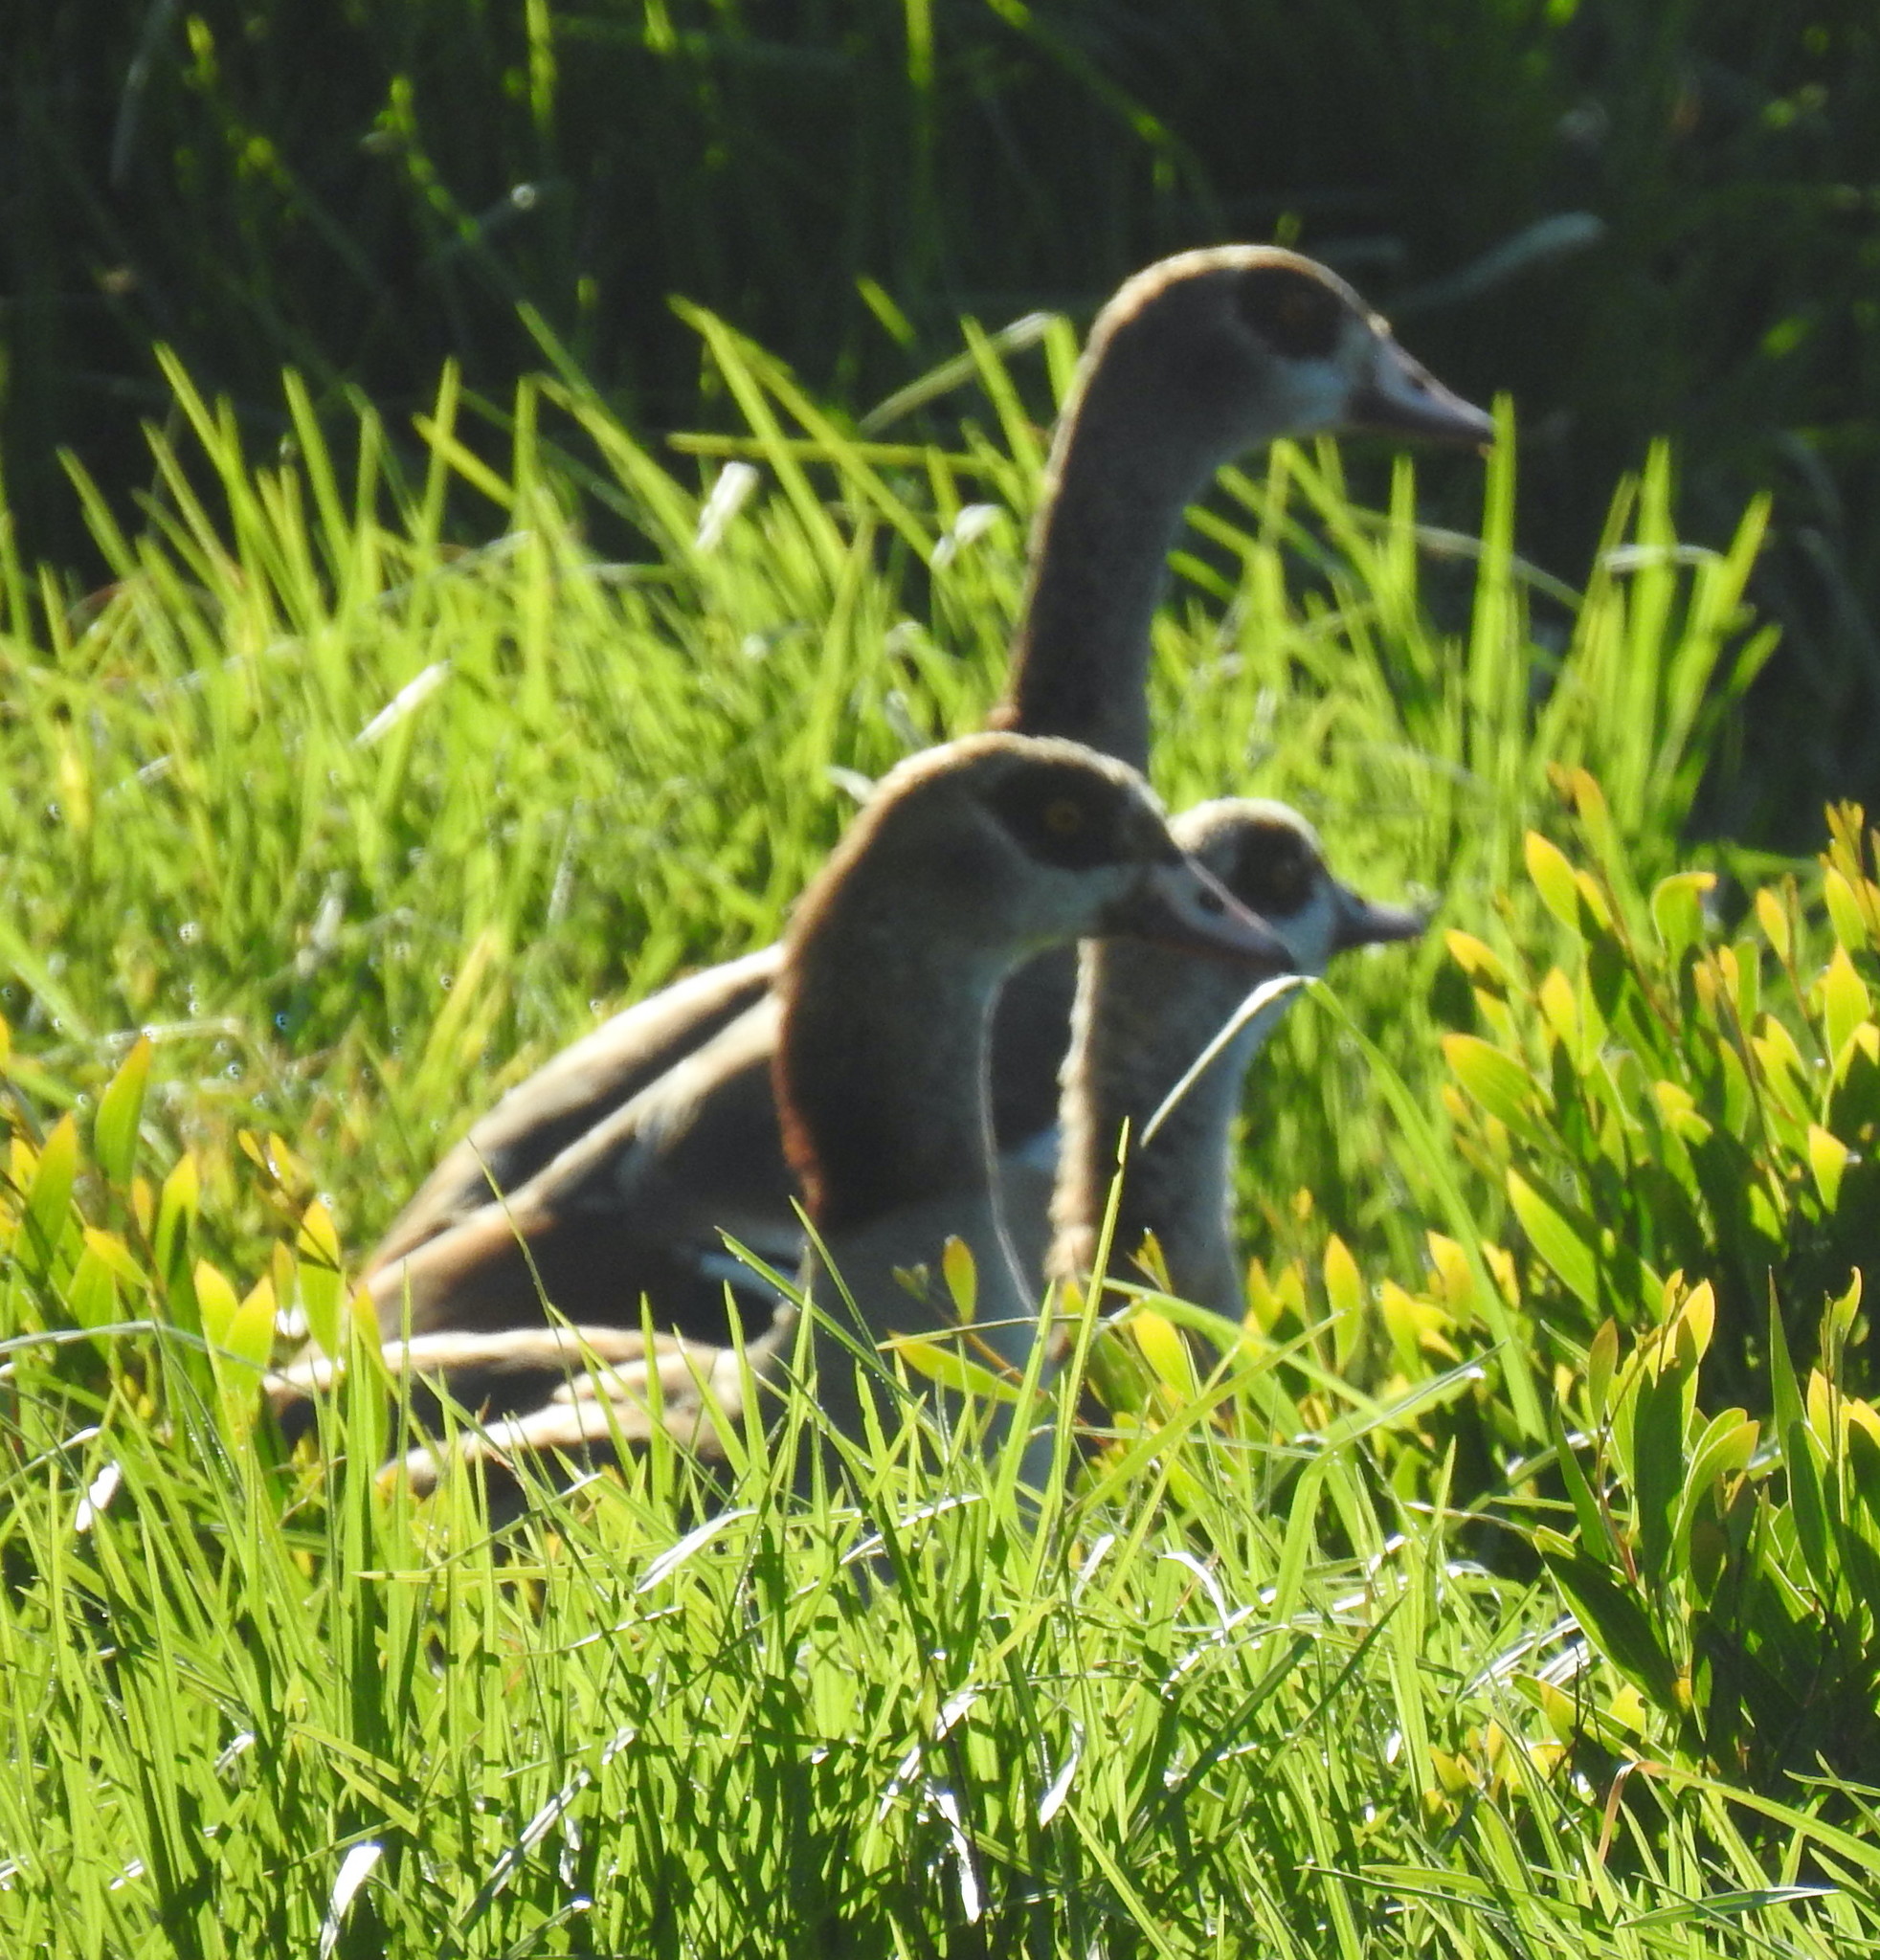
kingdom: Animalia
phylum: Chordata
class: Aves
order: Anseriformes
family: Anatidae
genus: Alopochen
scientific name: Alopochen aegyptiaca
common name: Egyptian goose
